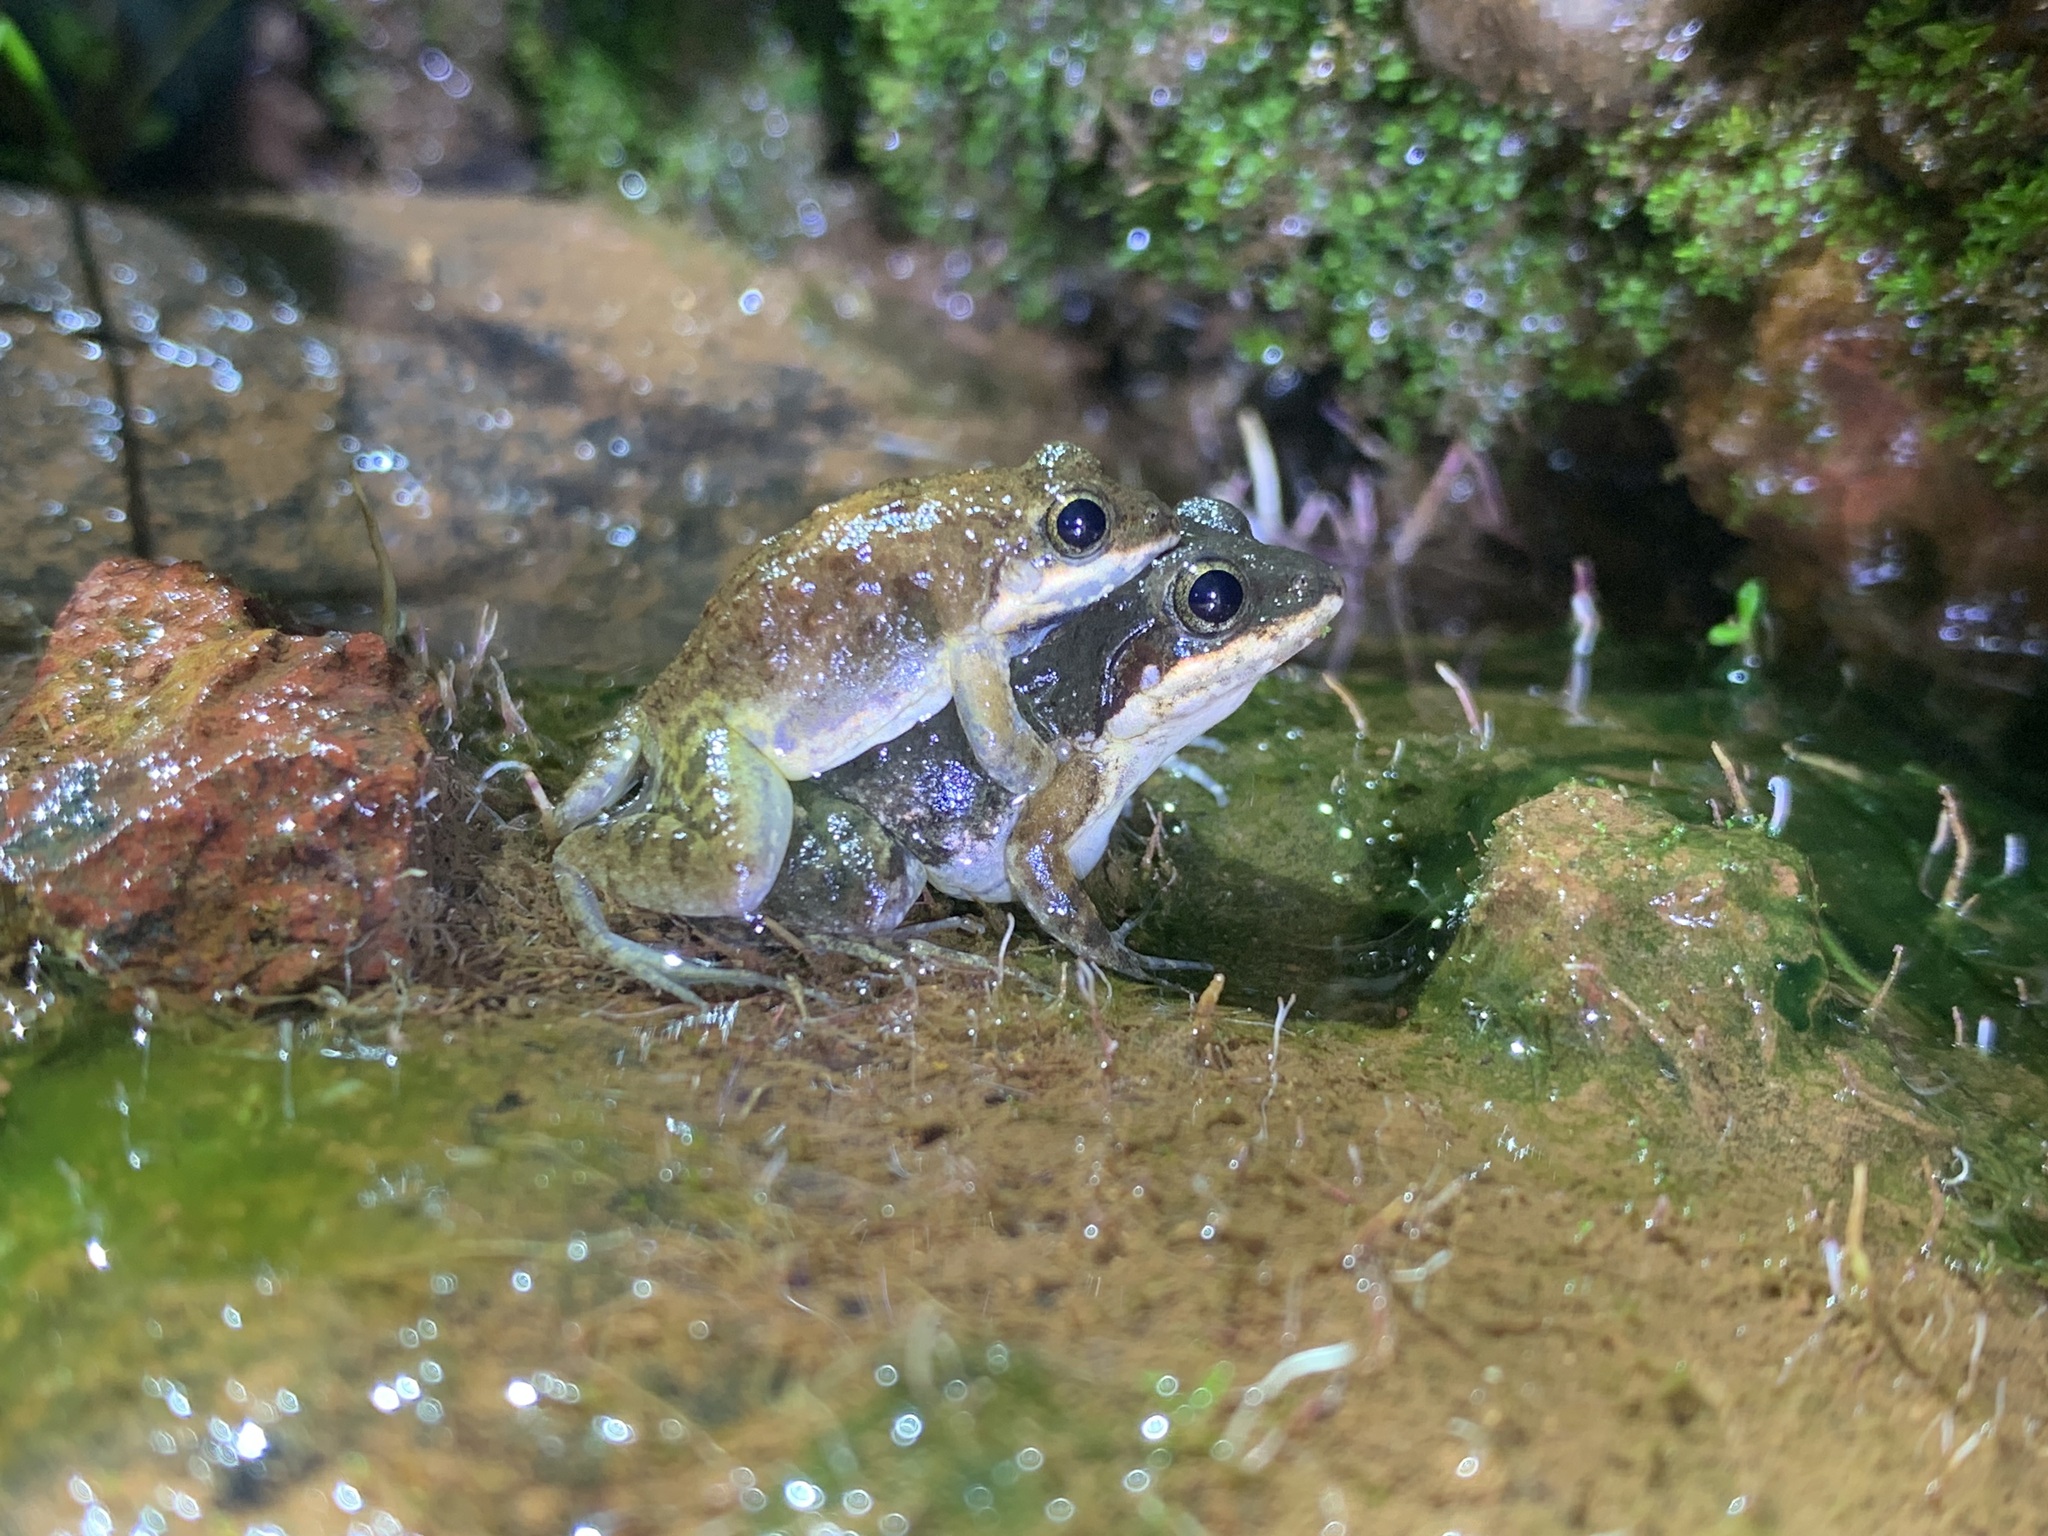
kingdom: Animalia
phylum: Chordata
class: Amphibia
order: Anura
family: Dicroglossidae
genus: Minervarya
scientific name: Minervarya gomantaki
